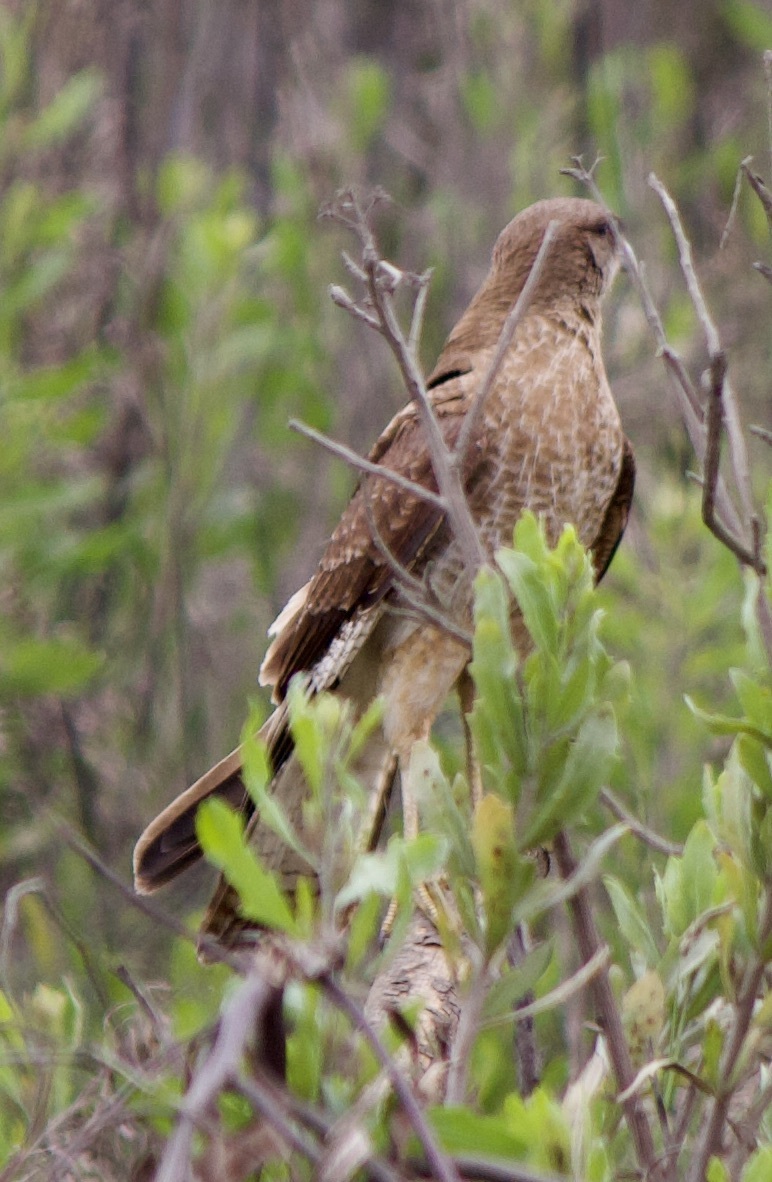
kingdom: Animalia
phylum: Chordata
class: Aves
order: Falconiformes
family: Falconidae
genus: Daptrius
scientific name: Daptrius
